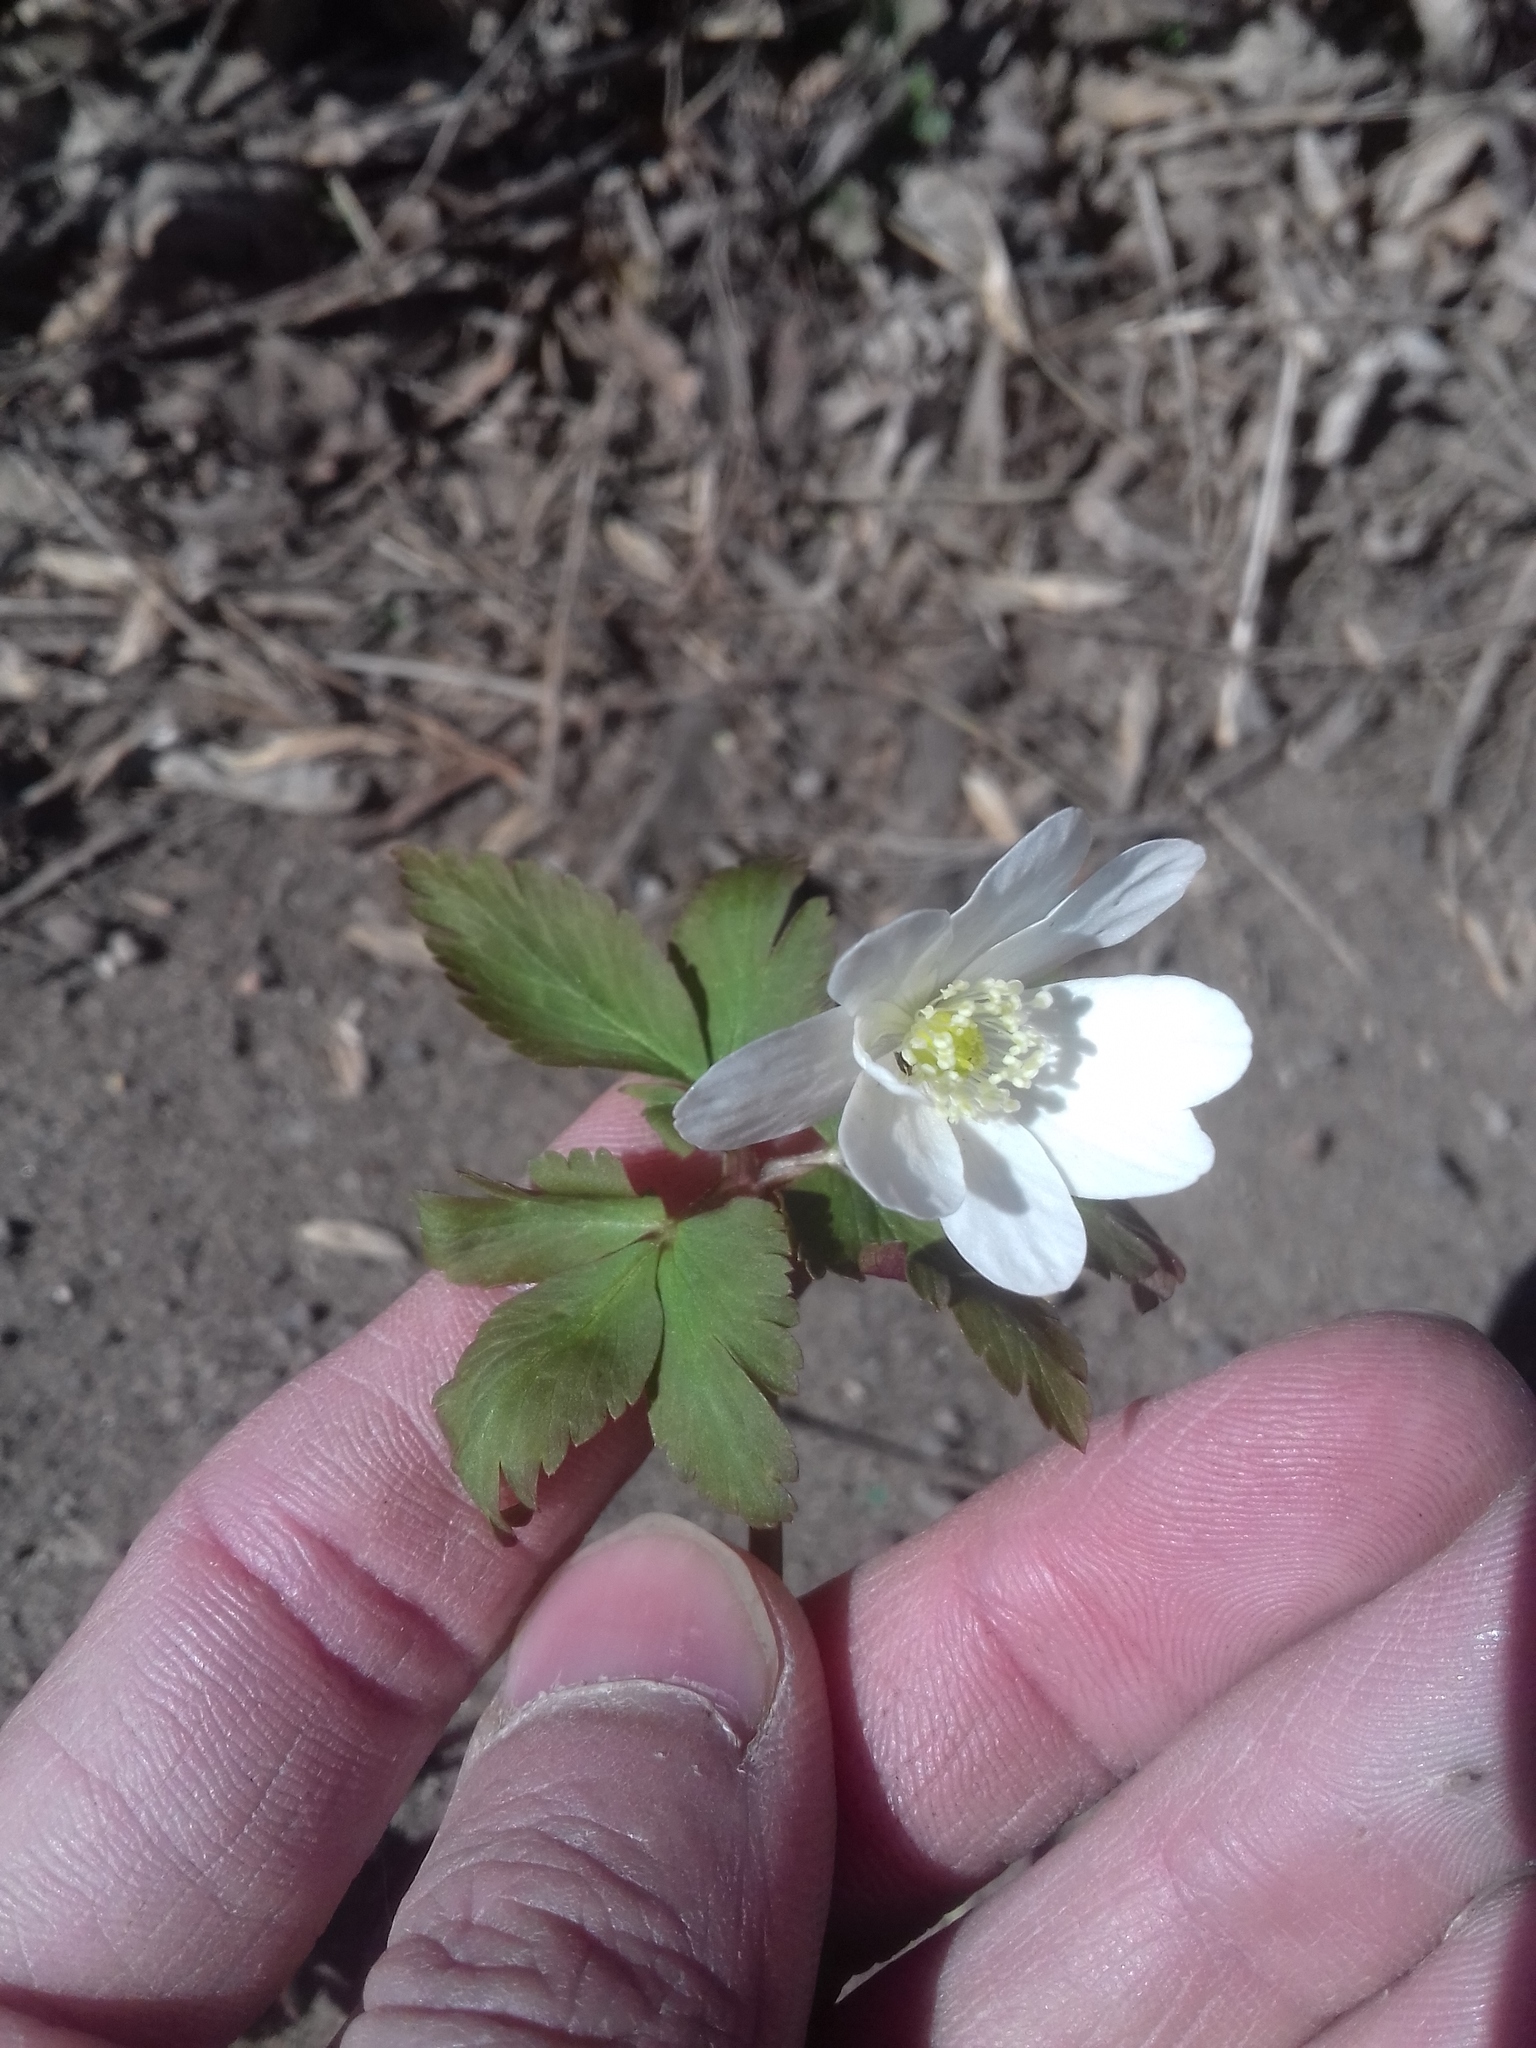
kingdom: Plantae
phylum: Tracheophyta
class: Magnoliopsida
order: Ranunculales
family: Ranunculaceae
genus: Anemone
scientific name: Anemone altaica
